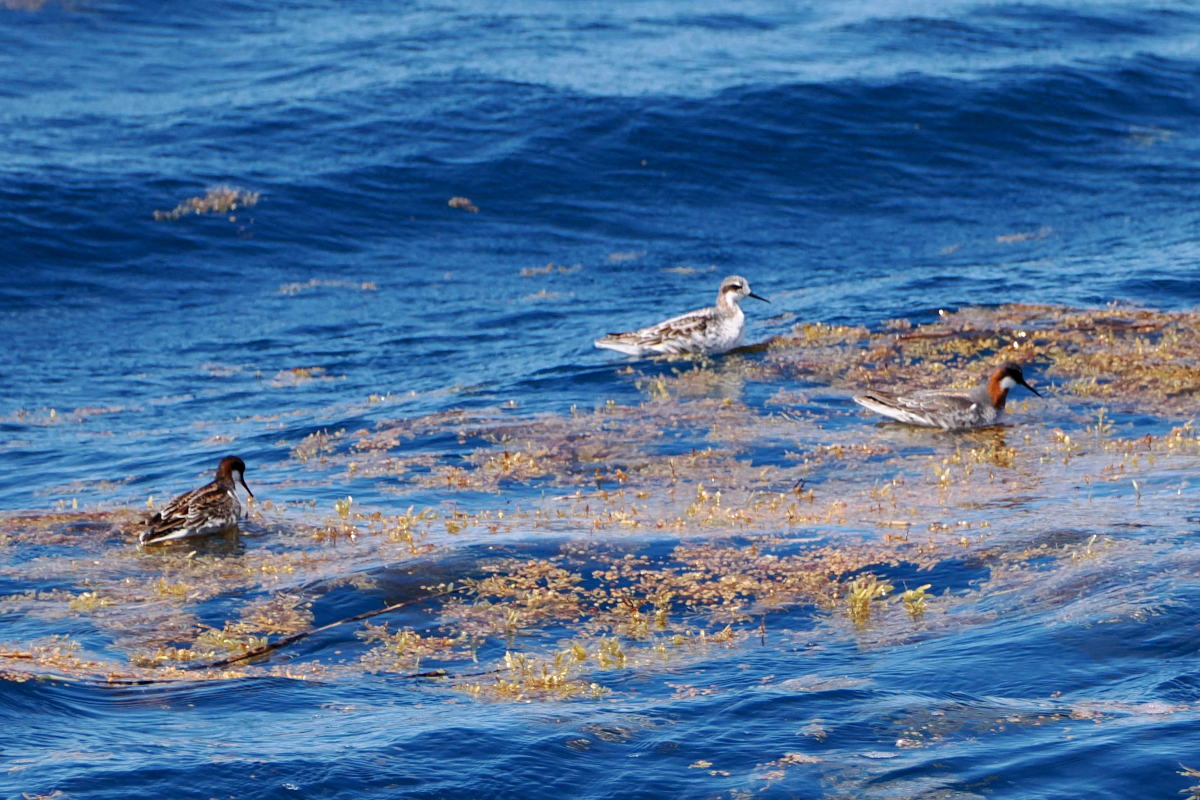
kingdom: Animalia
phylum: Chordata
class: Aves
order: Charadriiformes
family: Scolopacidae
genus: Phalaropus
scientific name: Phalaropus lobatus
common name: Red-necked phalarope
